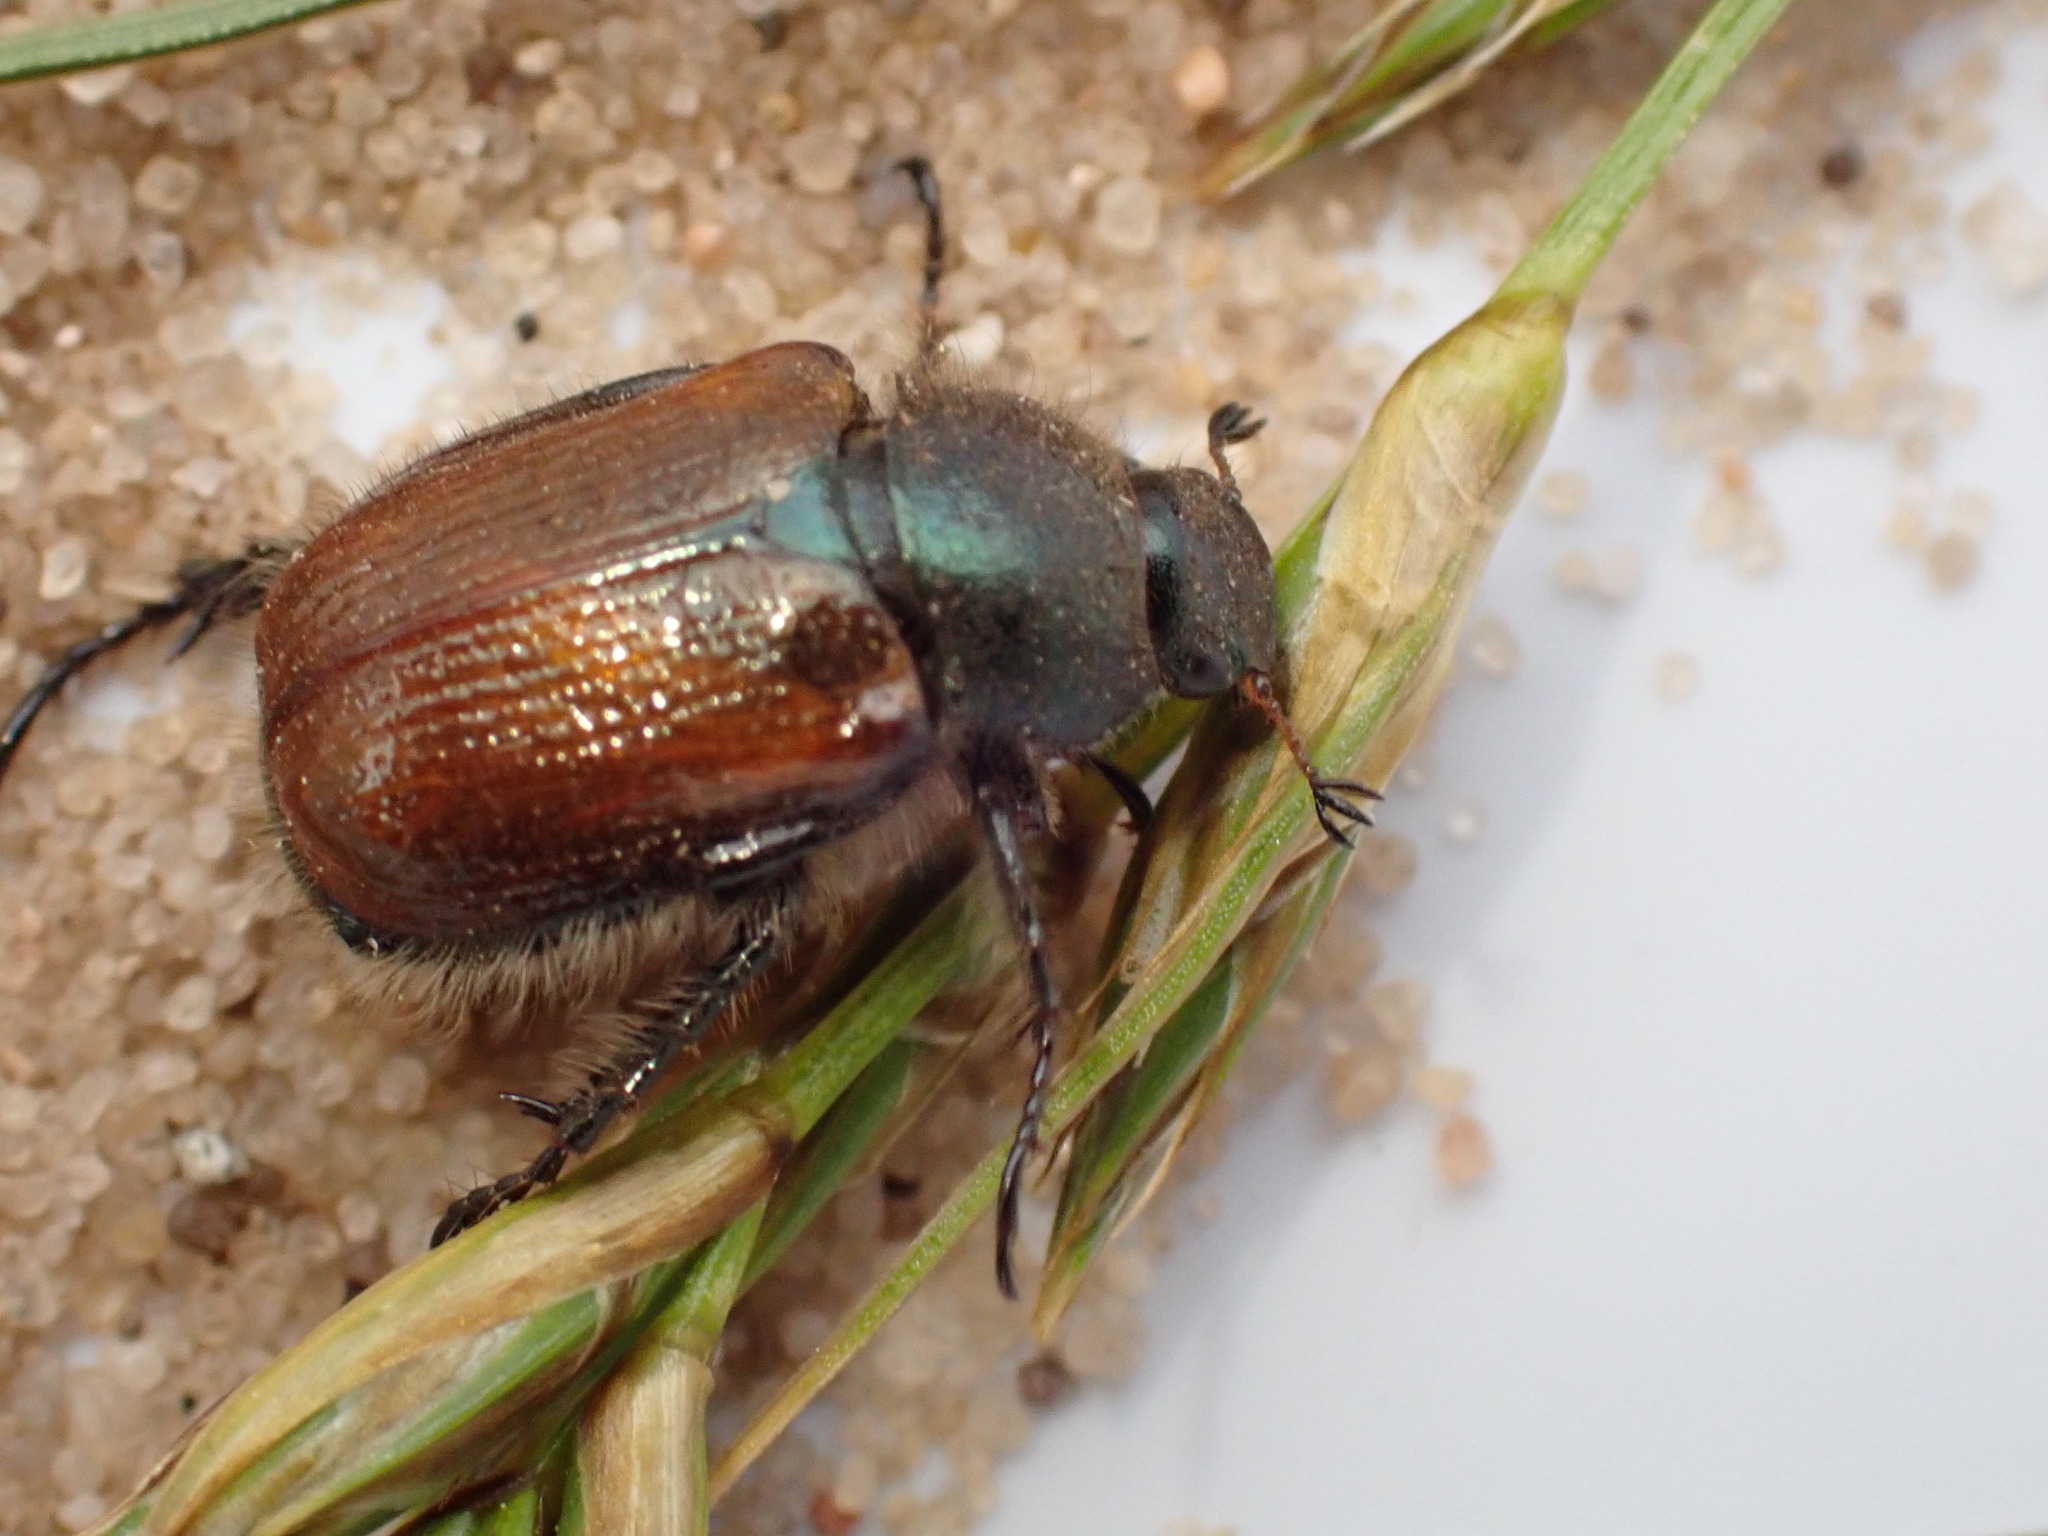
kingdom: Animalia
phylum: Arthropoda
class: Insecta
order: Coleoptera
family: Scarabaeidae
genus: Phyllopertha
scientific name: Phyllopertha horticola
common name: Garden chafer
